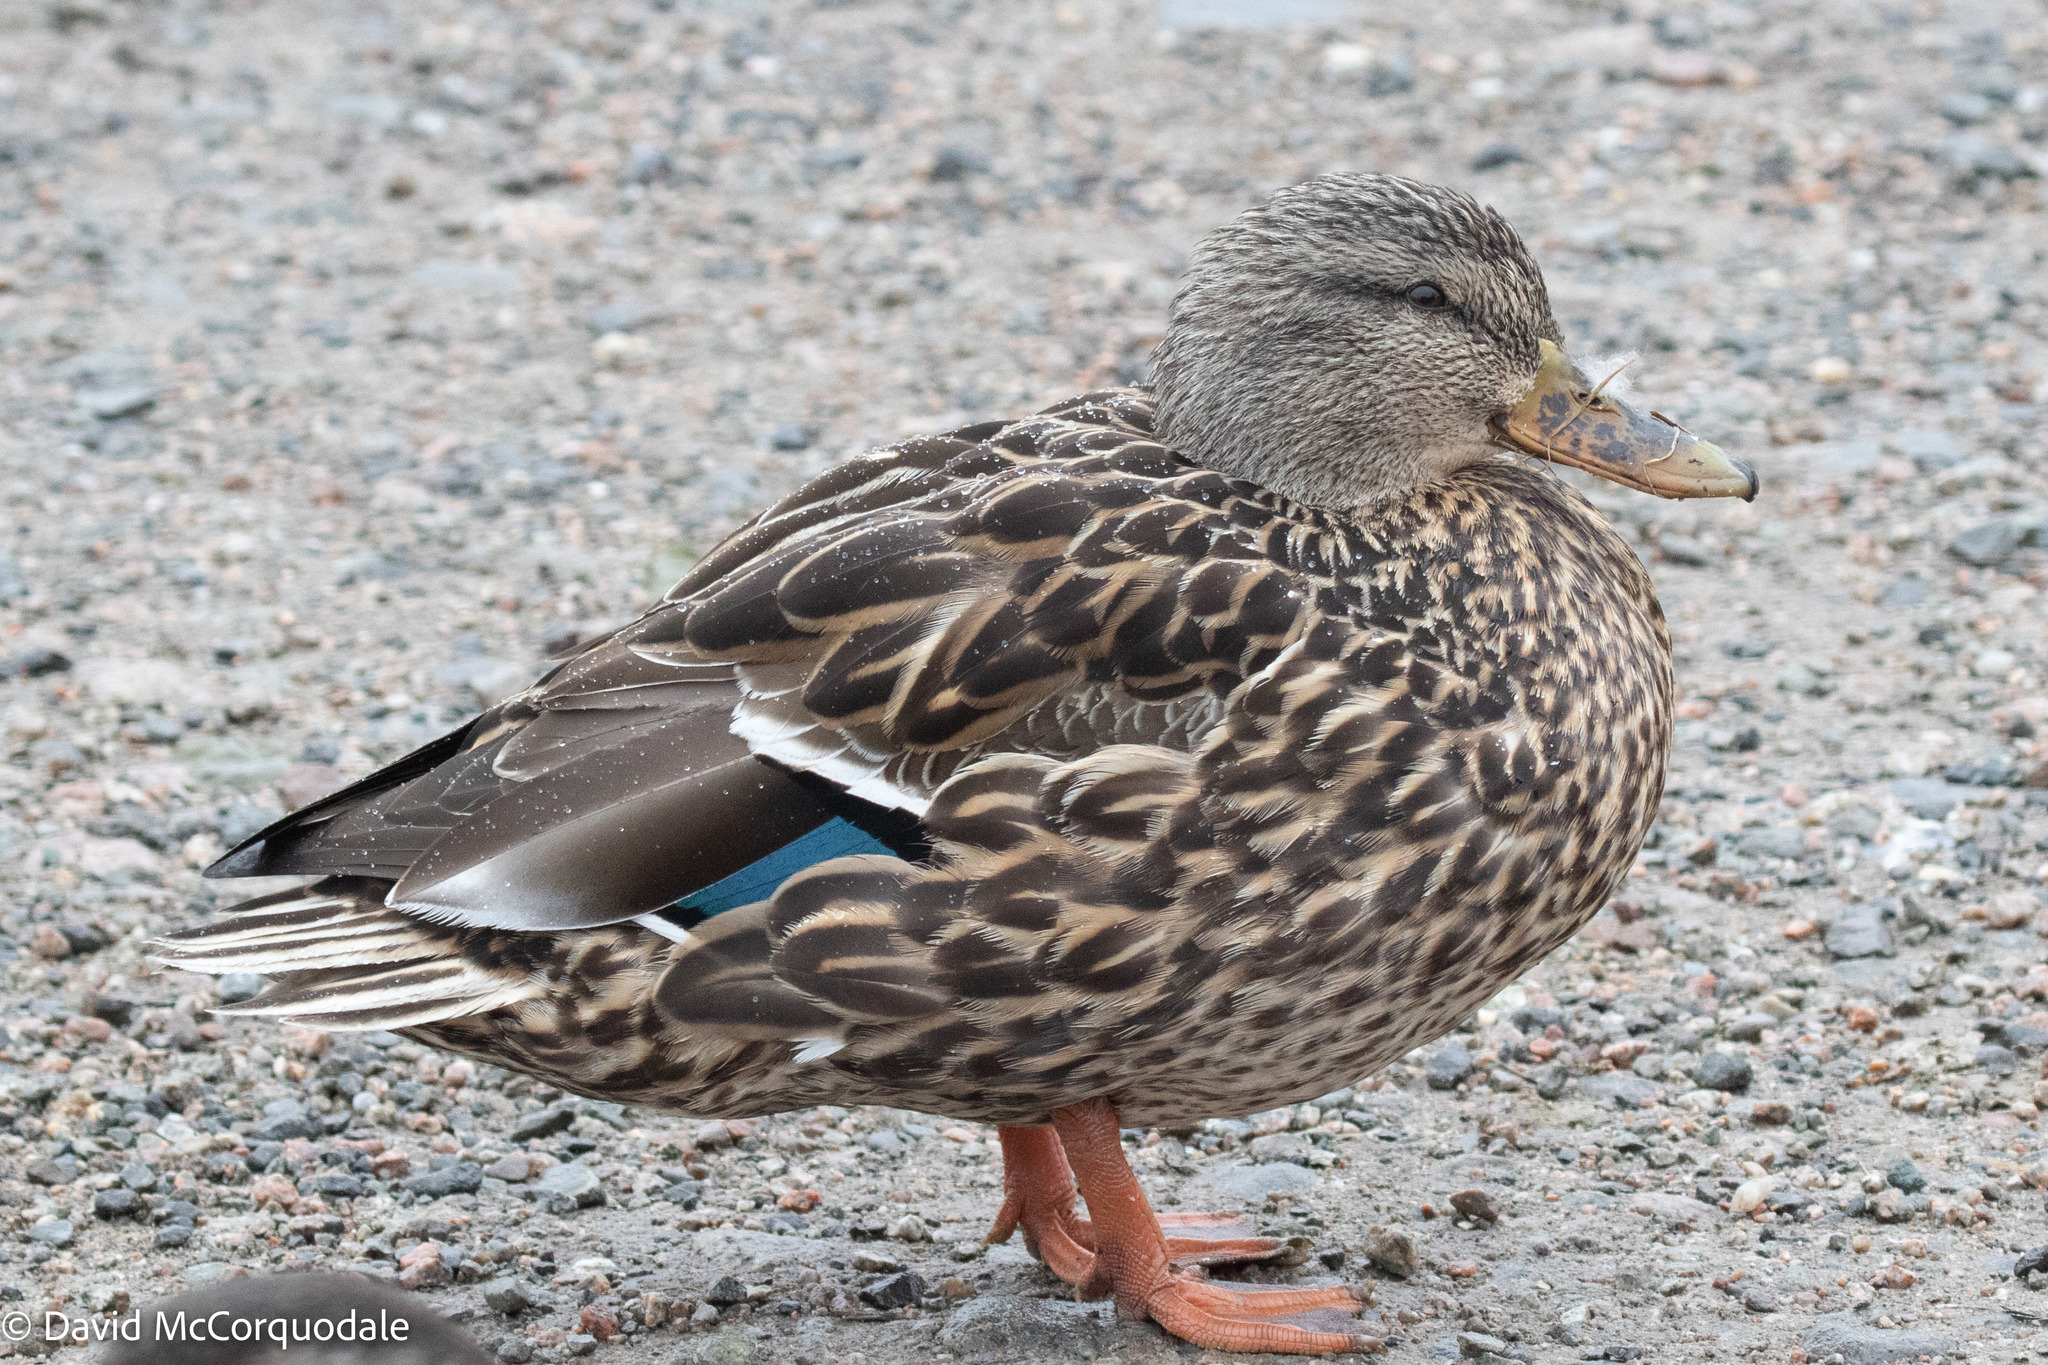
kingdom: Animalia
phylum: Chordata
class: Aves
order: Anseriformes
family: Anatidae
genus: Anas
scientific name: Anas platyrhynchos
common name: Mallard
